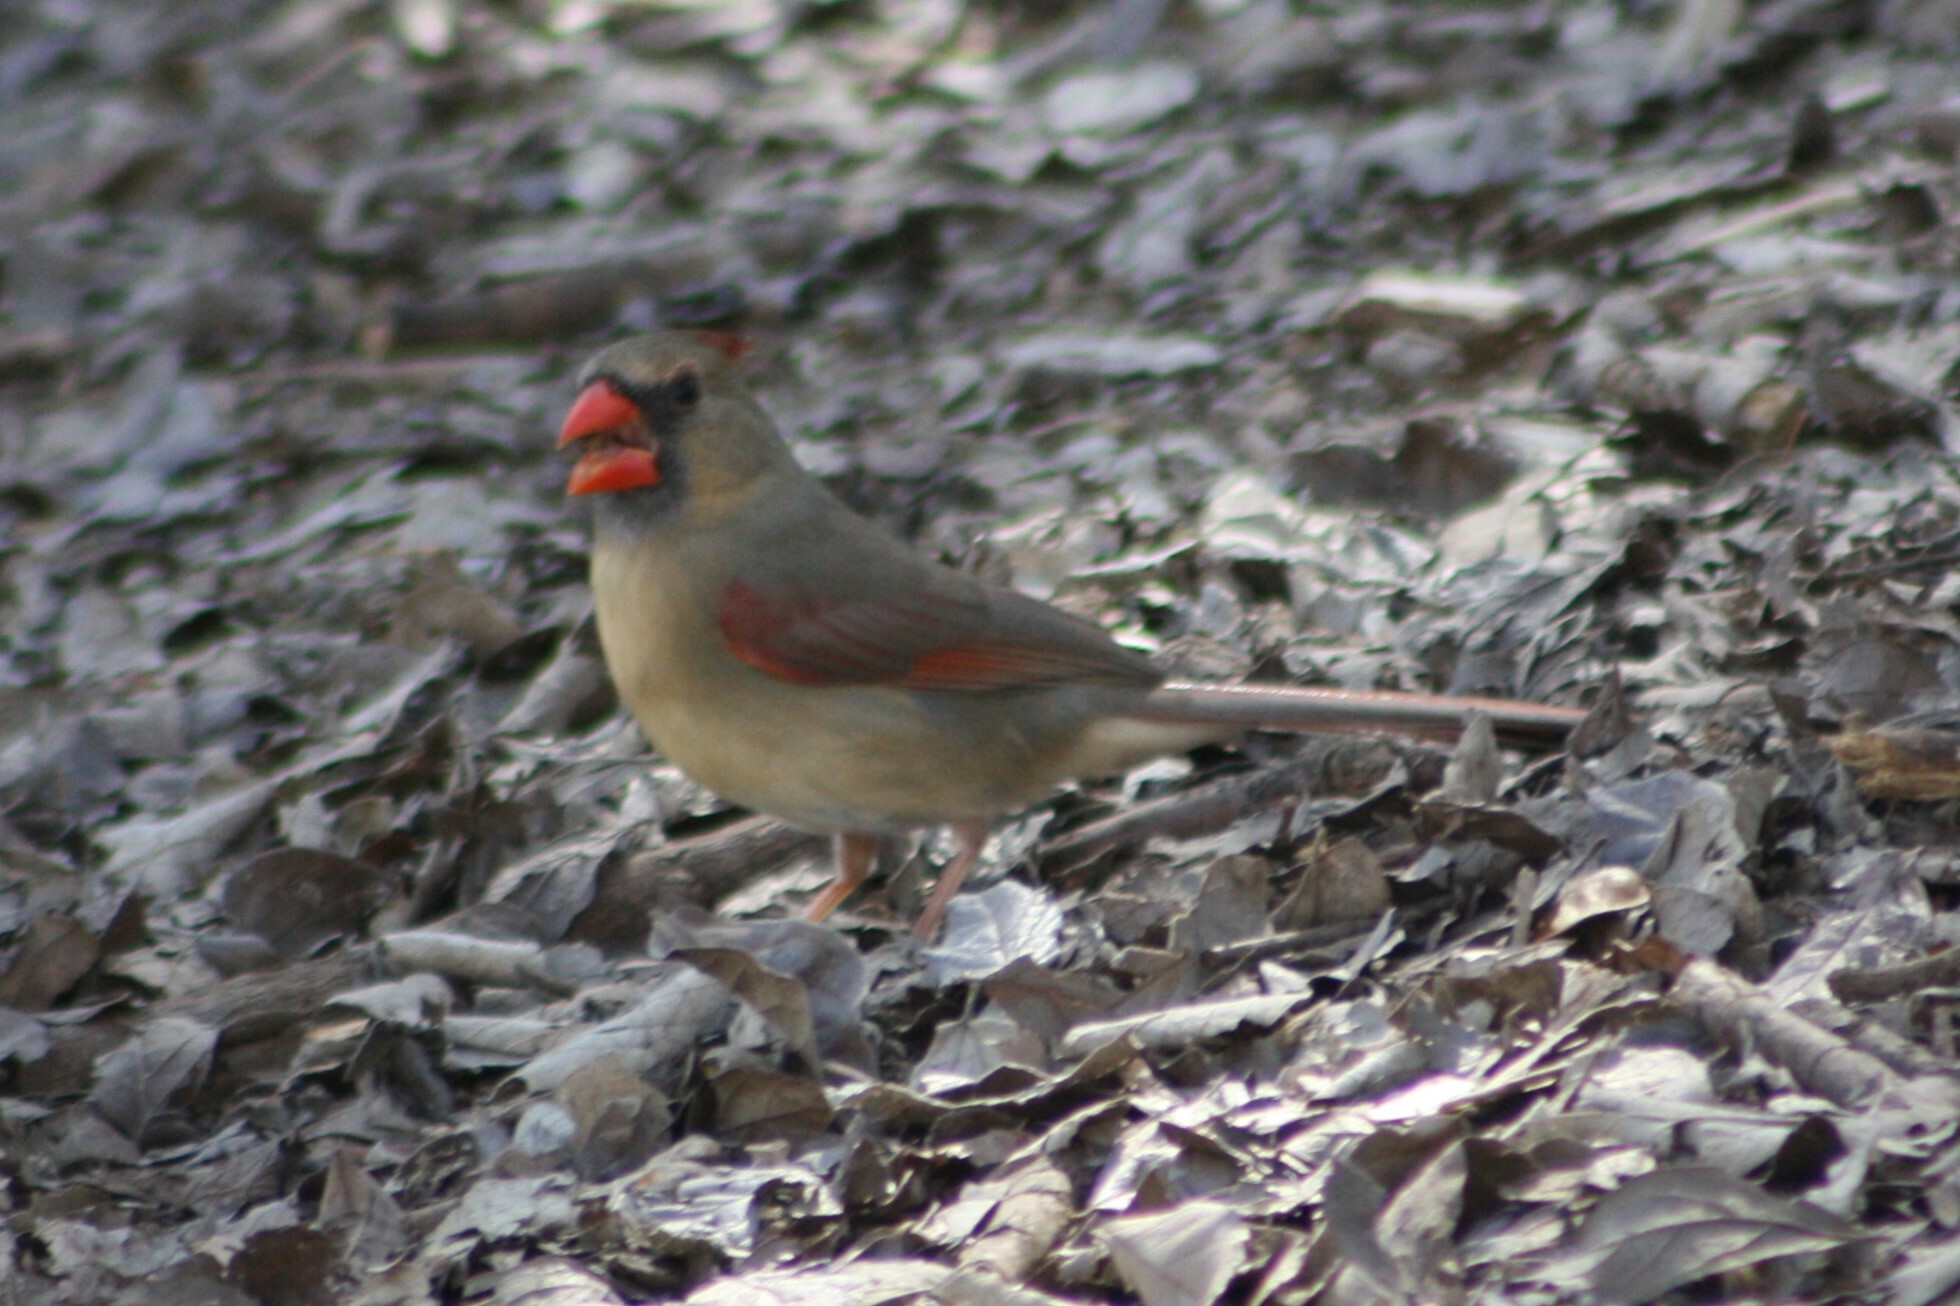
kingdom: Animalia
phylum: Chordata
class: Aves
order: Passeriformes
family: Cardinalidae
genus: Cardinalis
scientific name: Cardinalis cardinalis
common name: Northern cardinal
